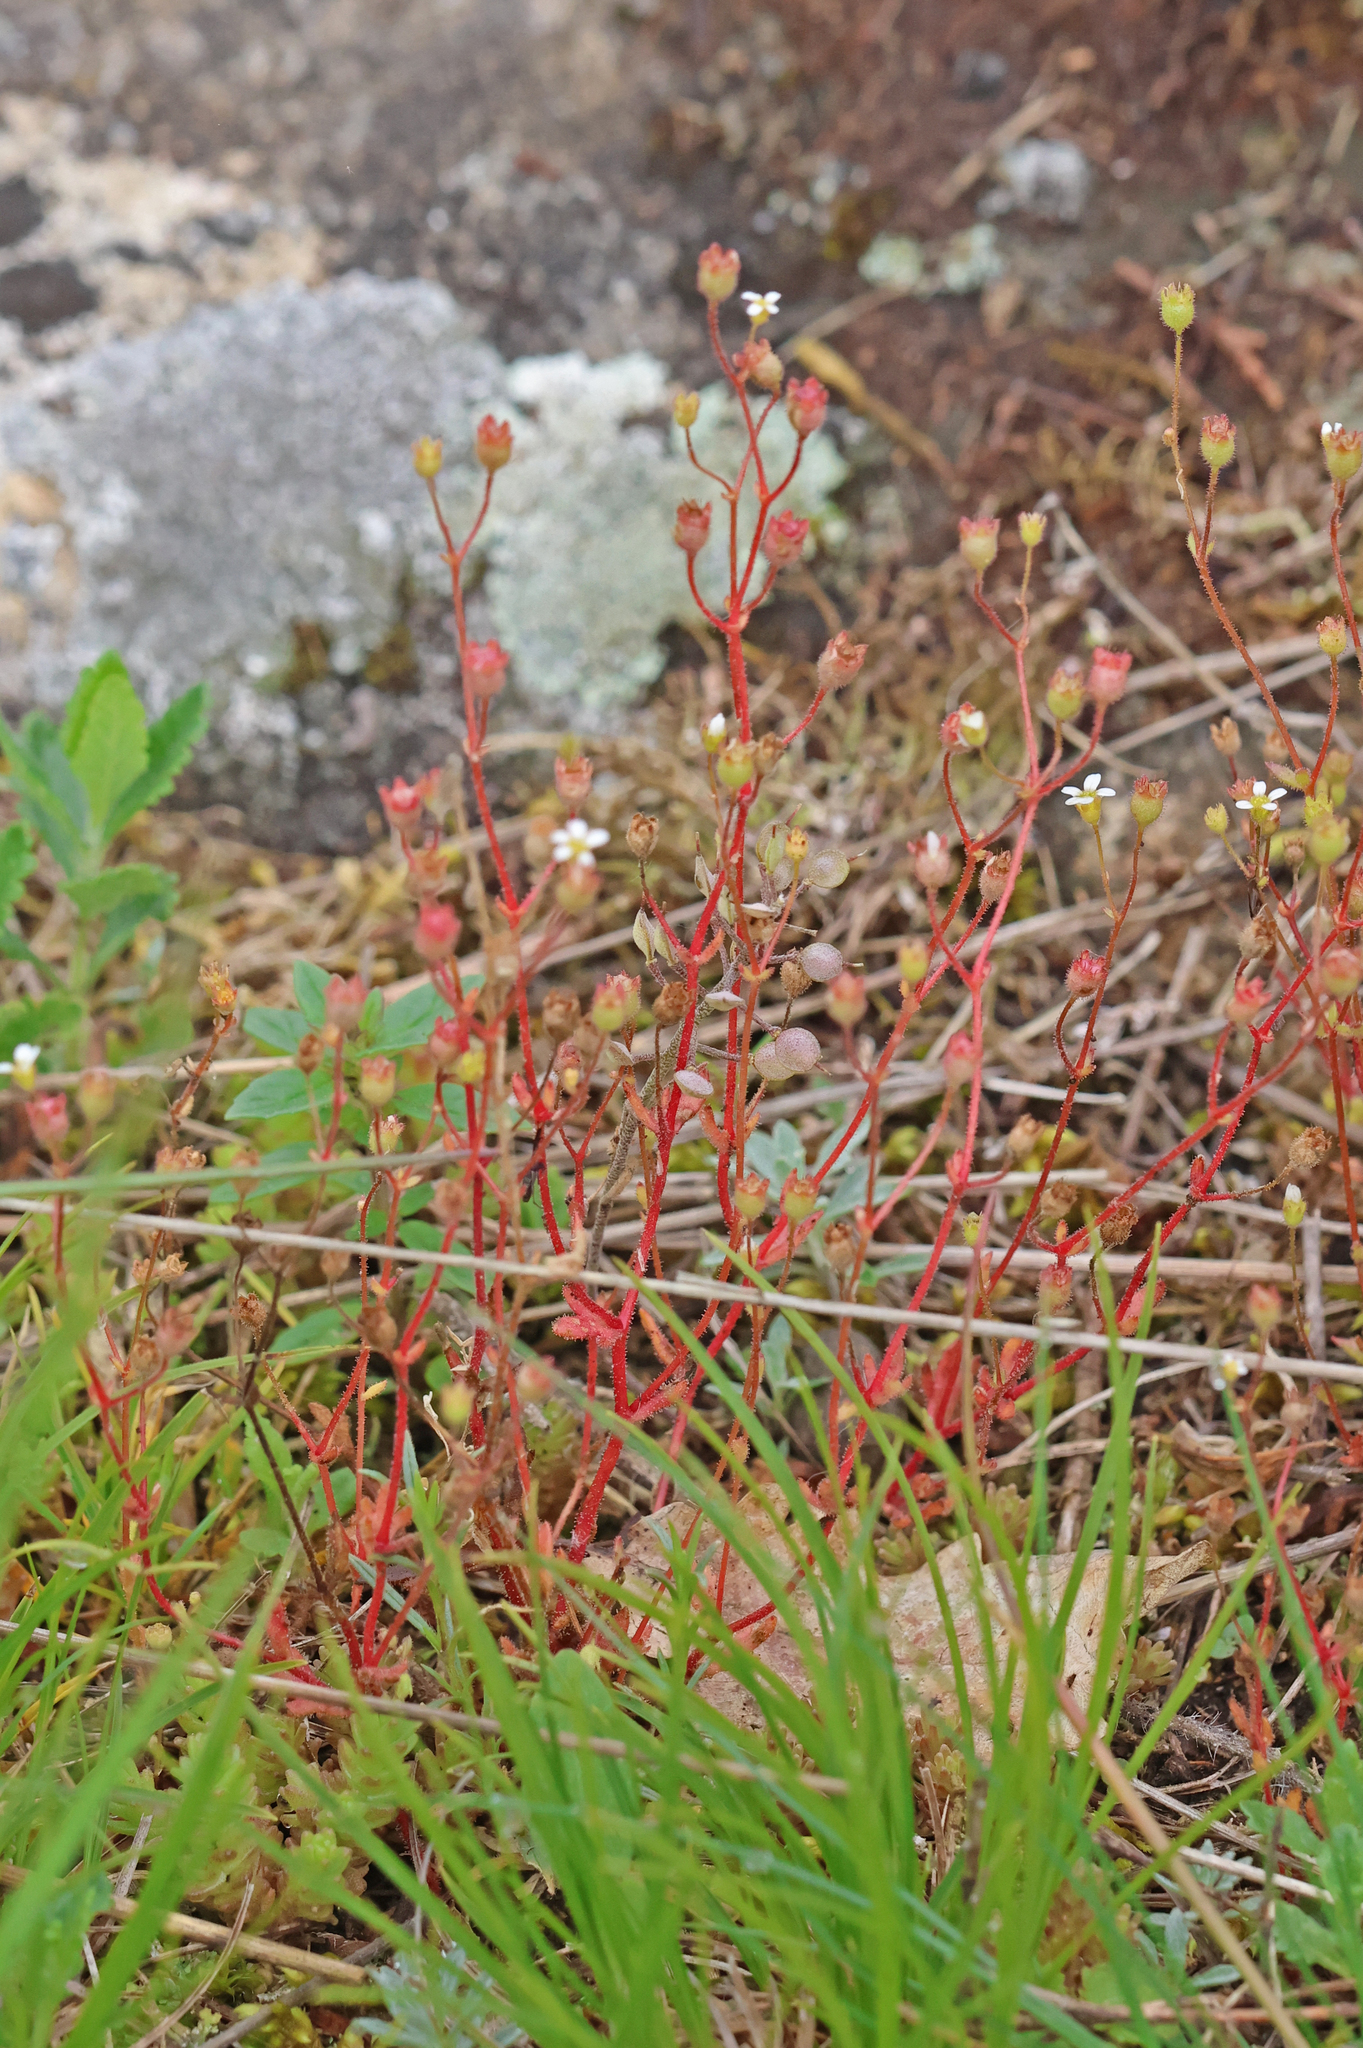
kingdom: Plantae
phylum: Tracheophyta
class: Magnoliopsida
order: Saxifragales
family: Saxifragaceae
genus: Saxifraga
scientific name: Saxifraga tridactylites
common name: Rue-leaved saxifrage
